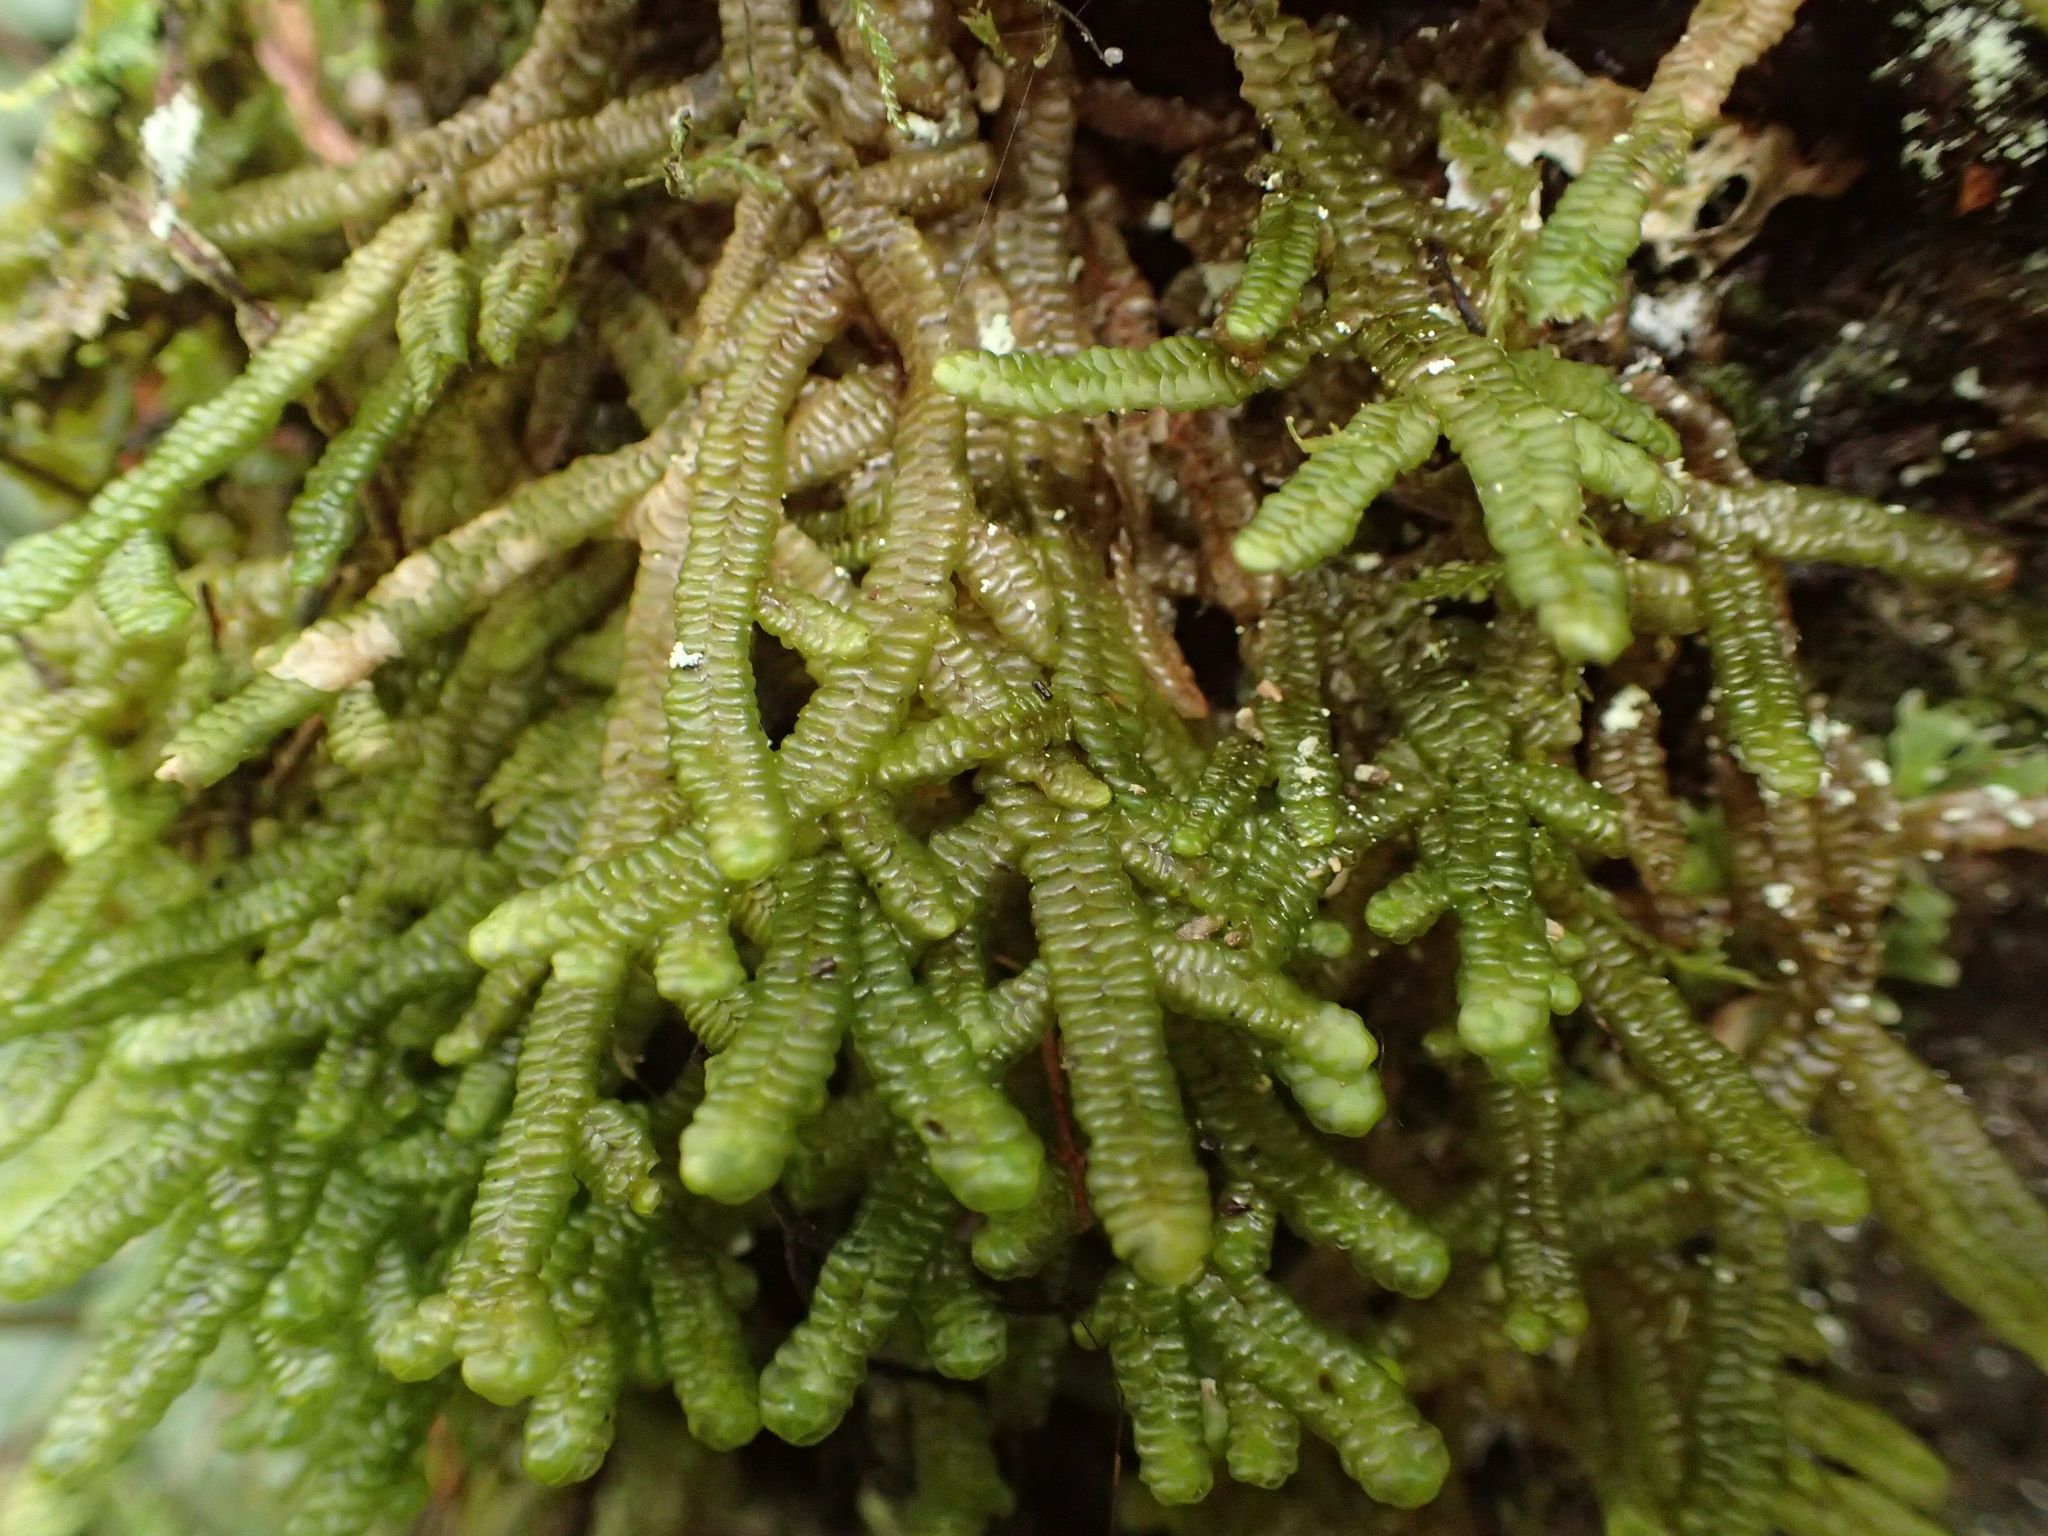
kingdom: Plantae
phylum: Marchantiophyta
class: Jungermanniopsida
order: Porellales
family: Porellaceae
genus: Porella
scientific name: Porella elegantula
